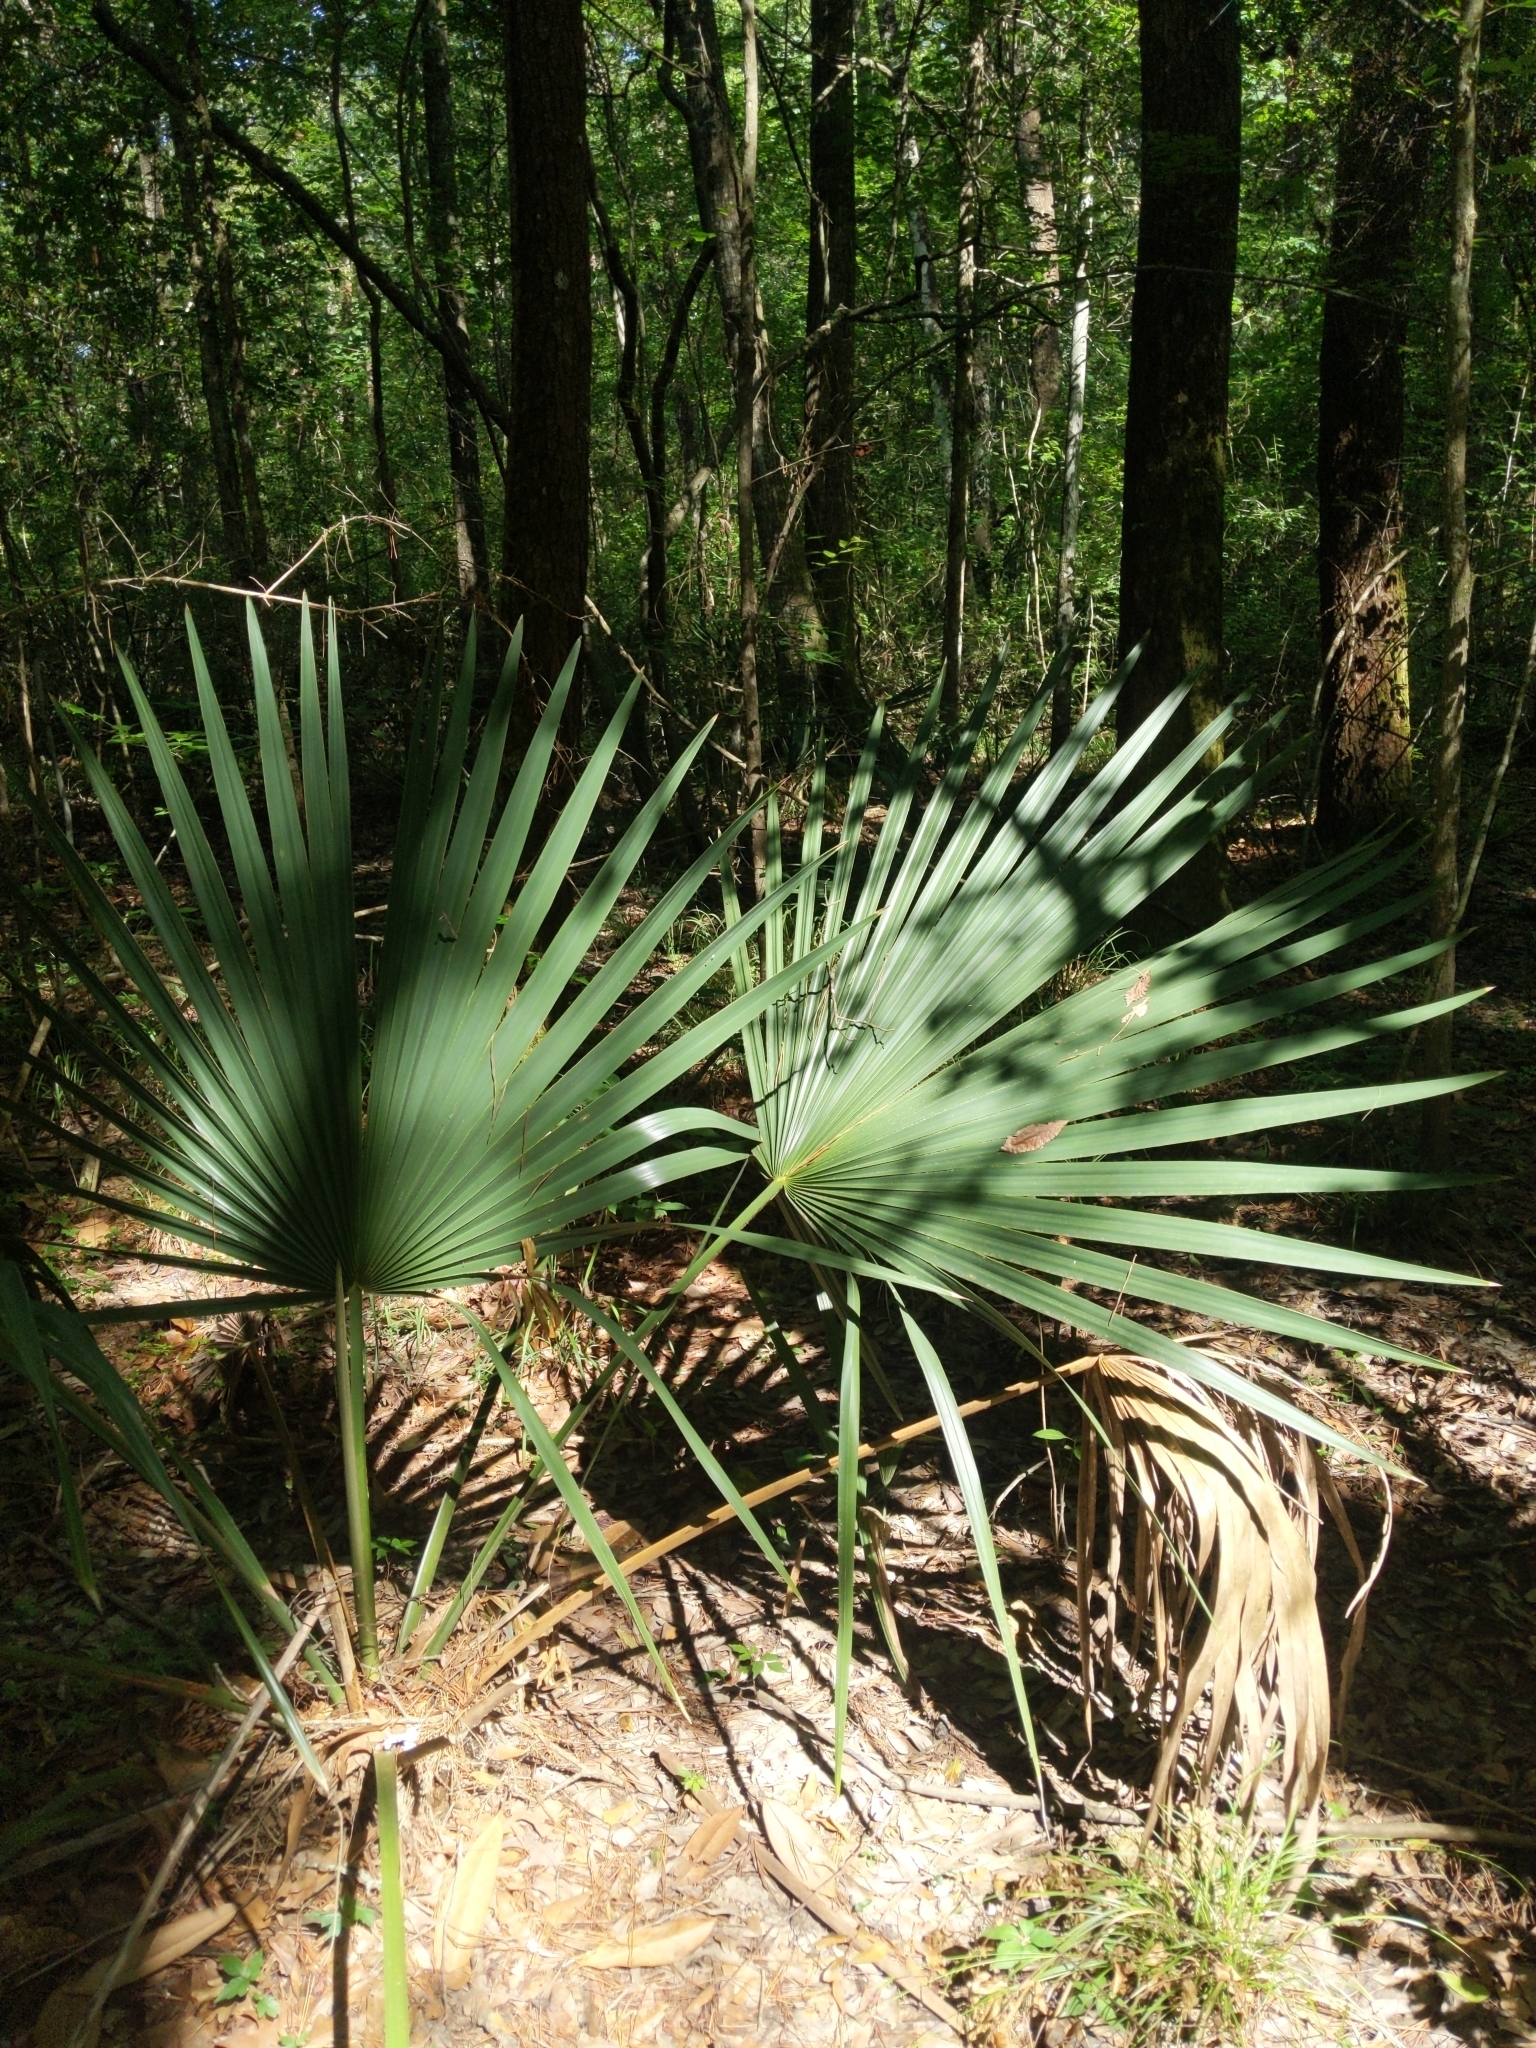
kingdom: Plantae
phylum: Tracheophyta
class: Liliopsida
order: Arecales
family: Arecaceae
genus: Sabal
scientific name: Sabal minor
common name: Dwarf palmetto
